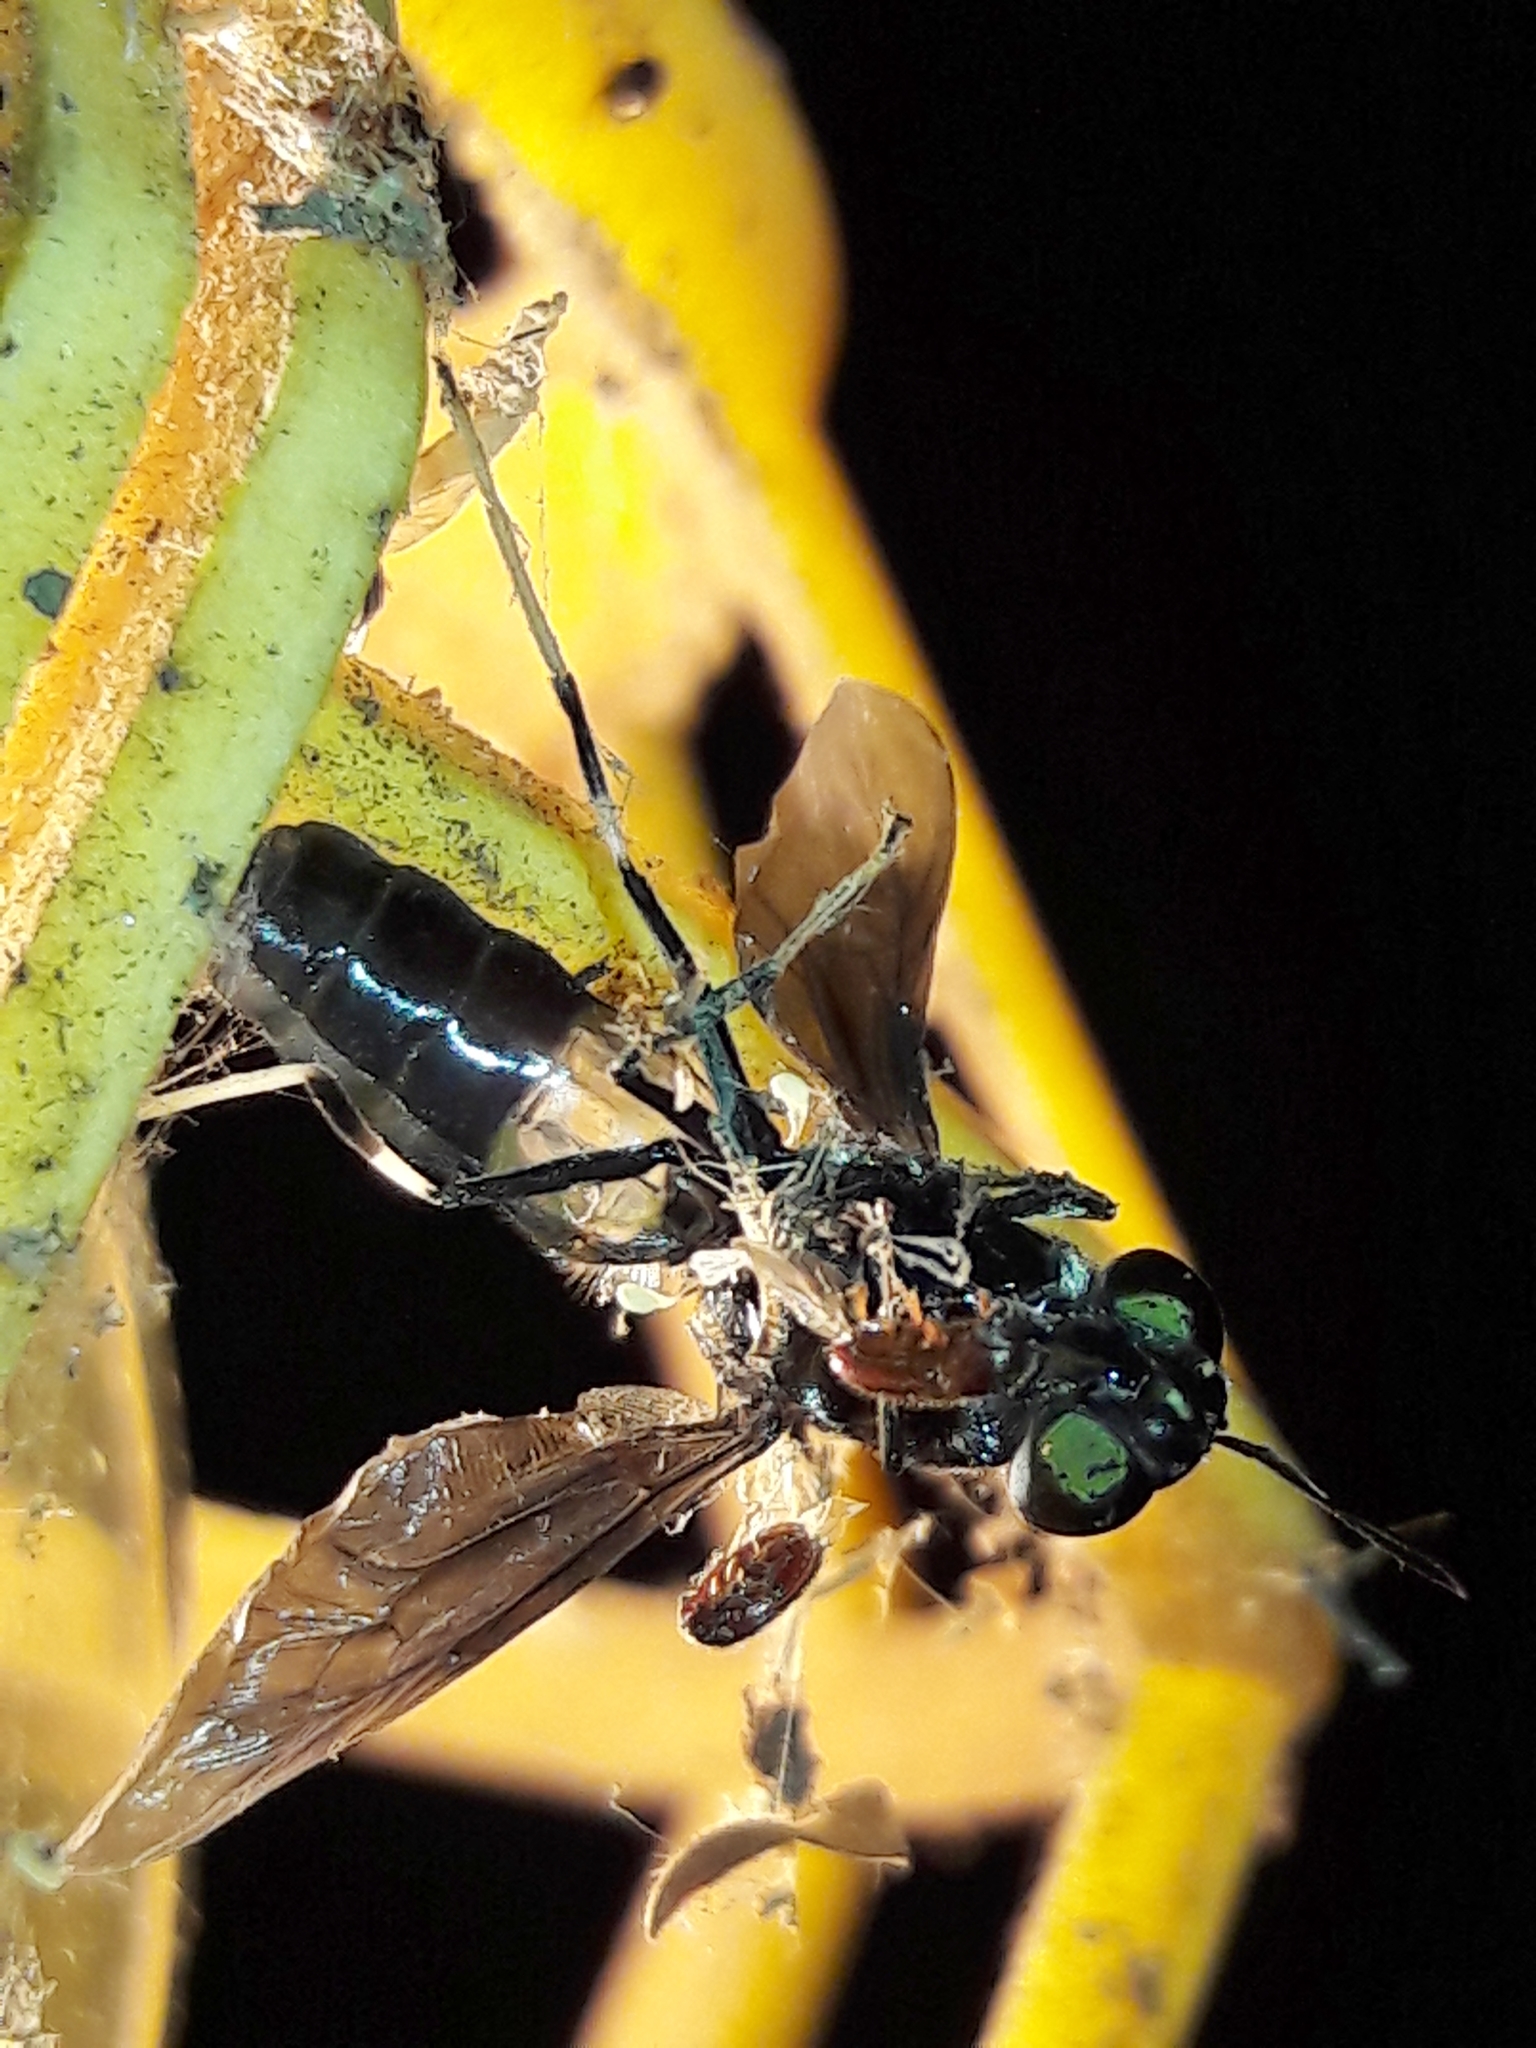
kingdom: Animalia
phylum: Arthropoda
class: Insecta
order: Diptera
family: Stratiomyidae
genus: Hermetia
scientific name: Hermetia illucens
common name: Black soldier fly
